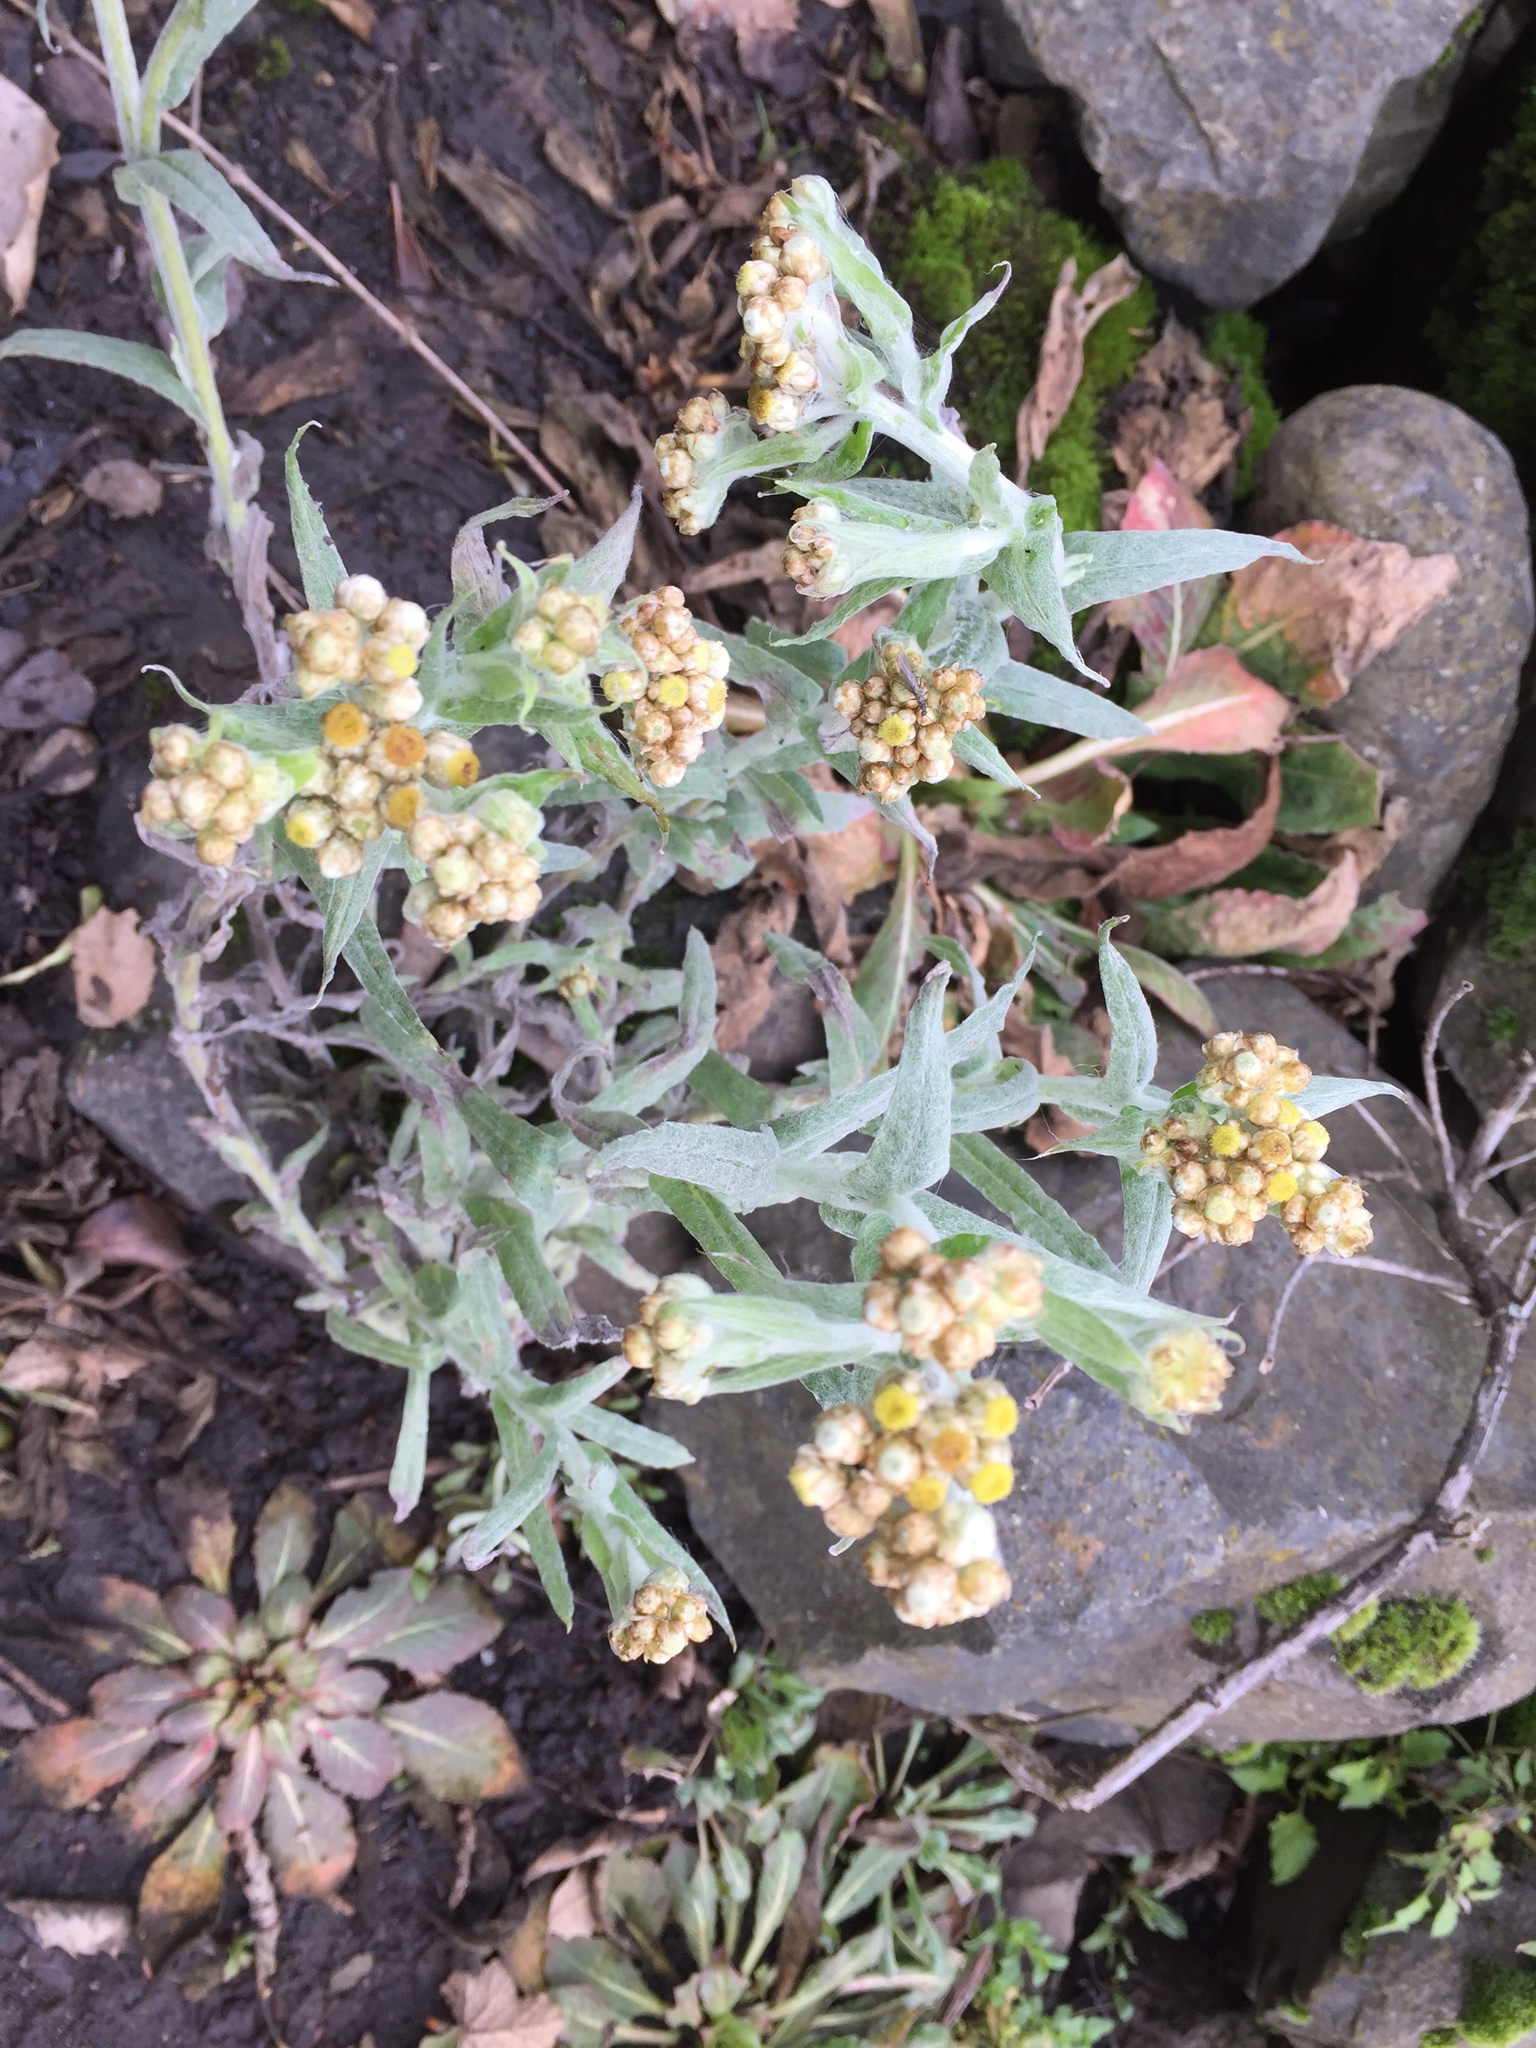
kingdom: Plantae
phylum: Tracheophyta
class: Magnoliopsida
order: Asterales
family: Asteraceae
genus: Pseudognaphalium
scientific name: Pseudognaphalium stramineum
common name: Cotton-batting-plant
